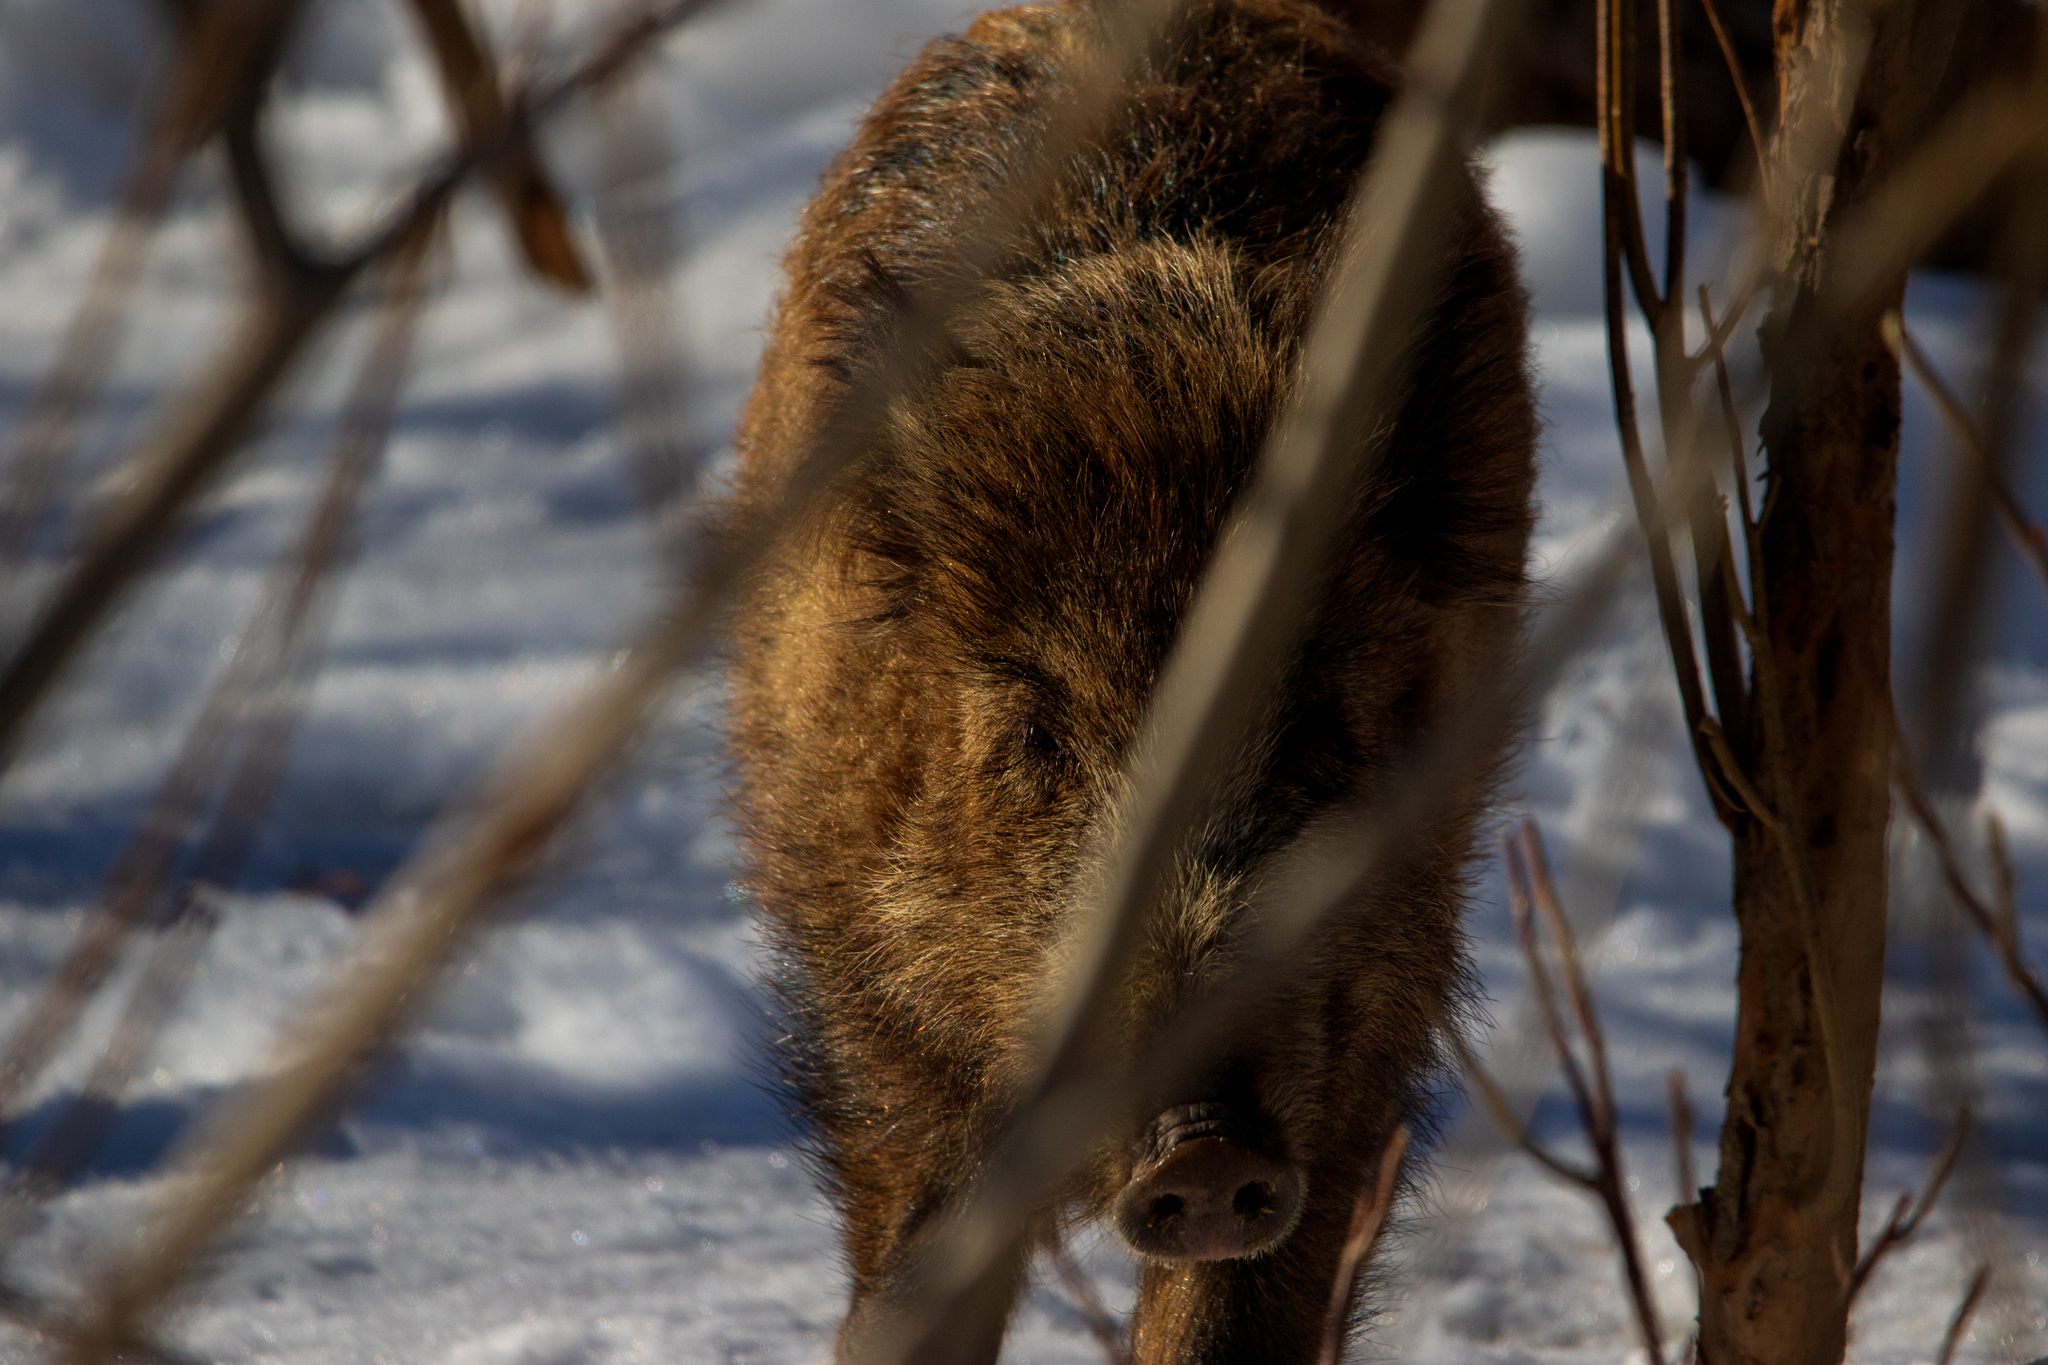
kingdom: Animalia
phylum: Chordata
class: Mammalia
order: Artiodactyla
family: Suidae
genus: Sus
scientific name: Sus scrofa
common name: Wild boar
